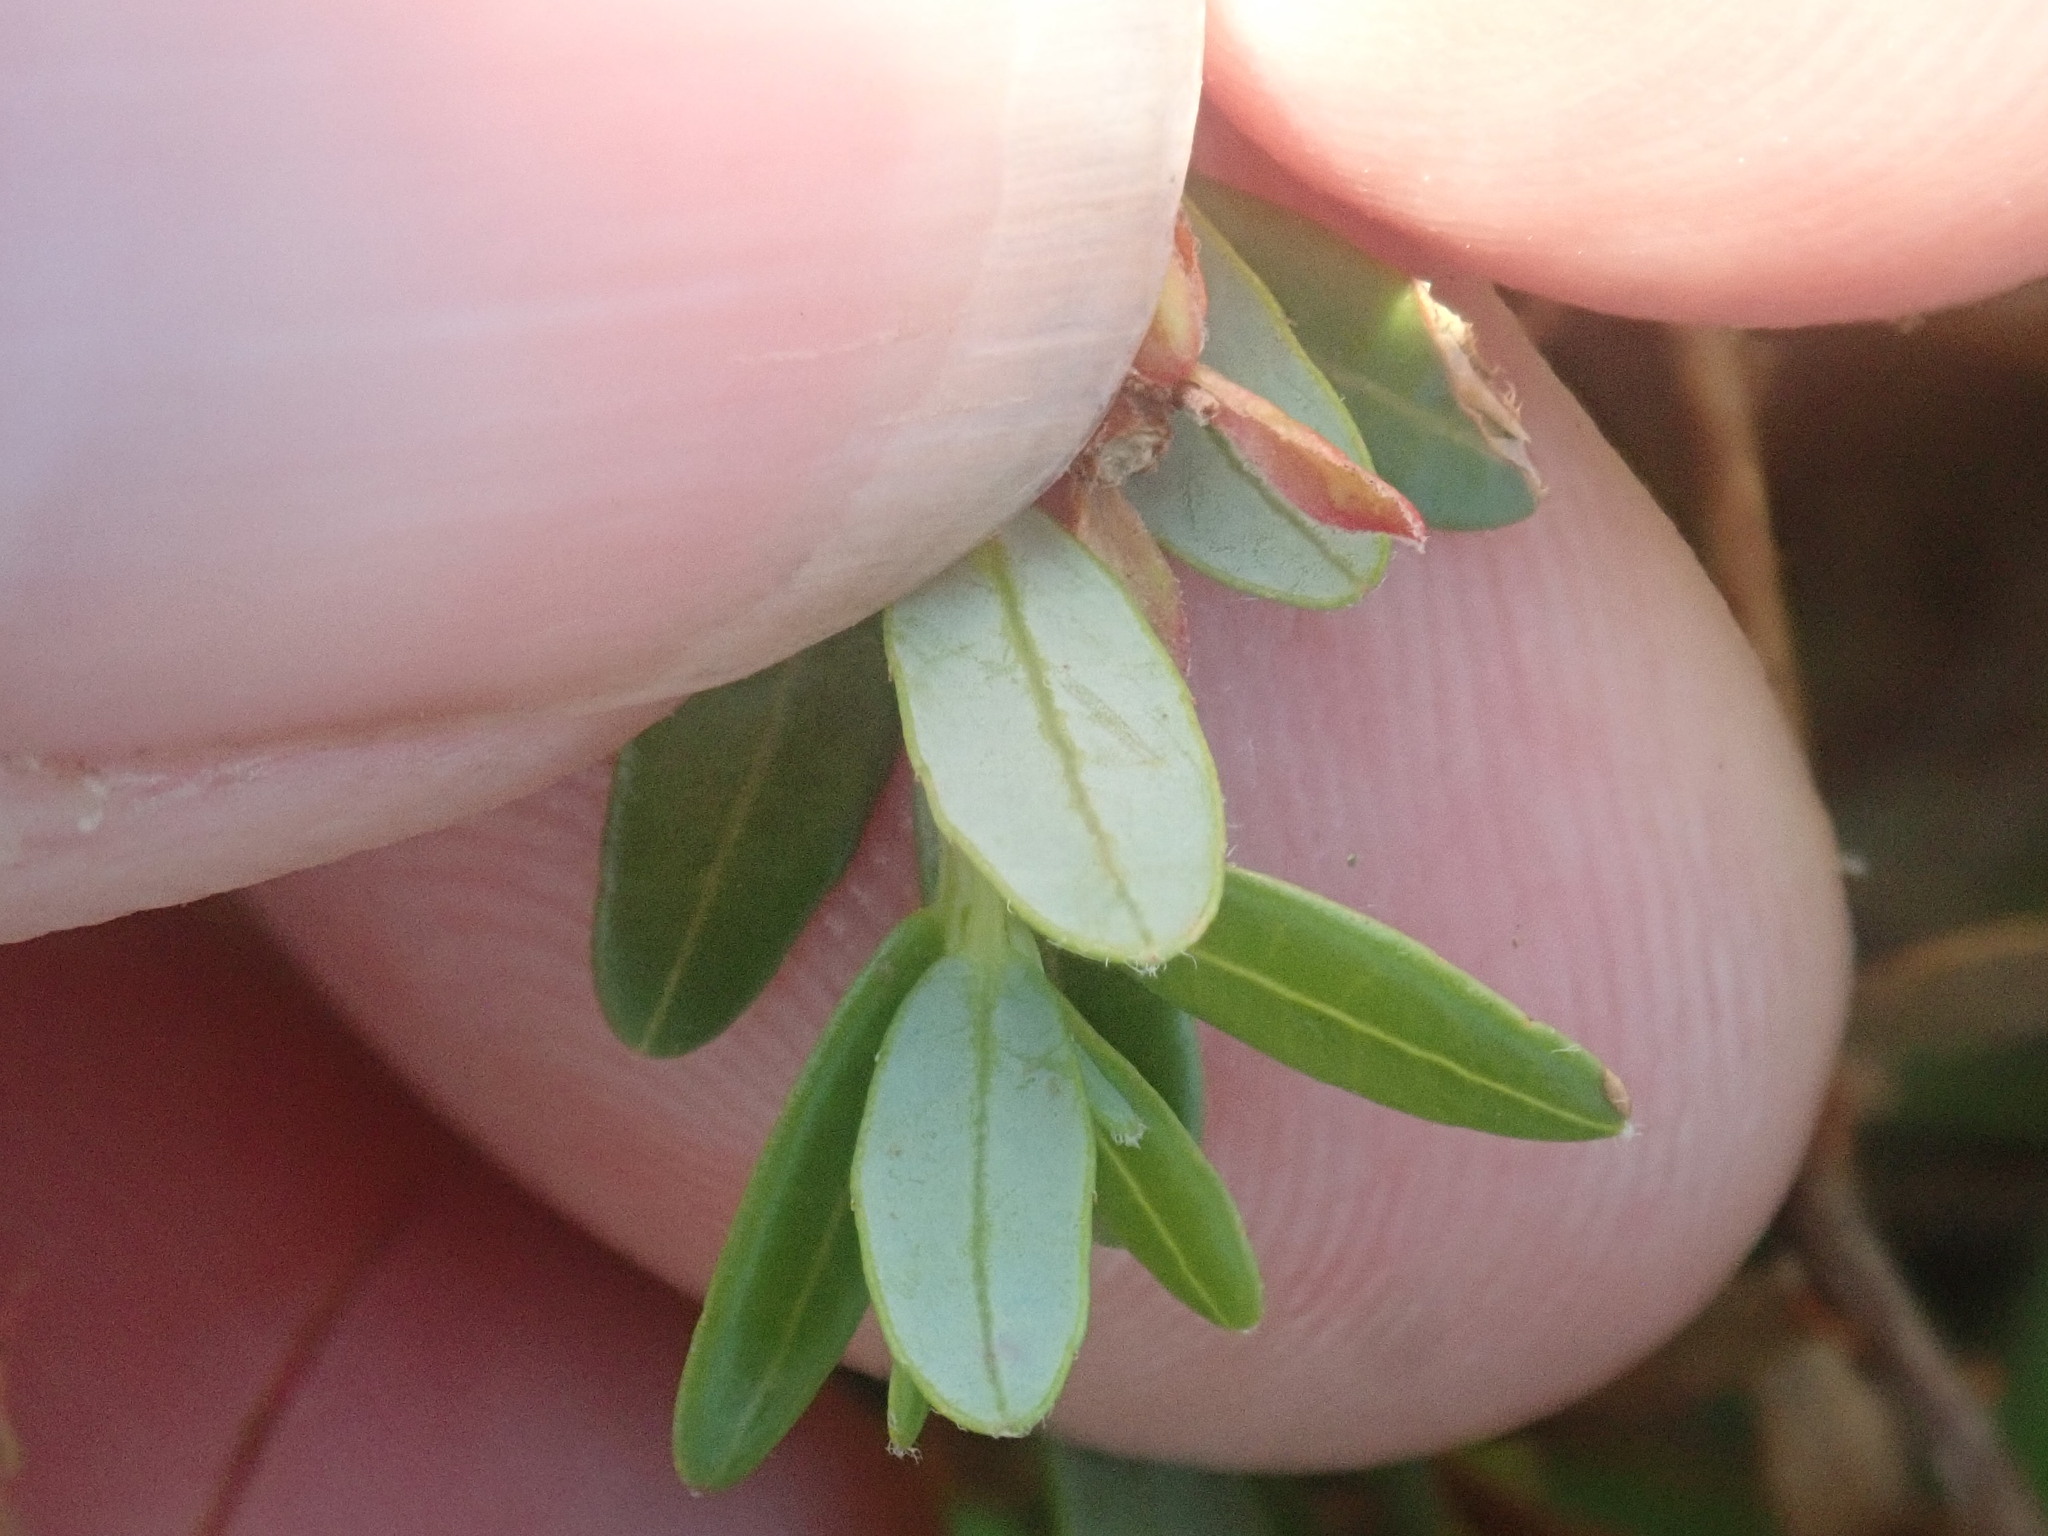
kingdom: Plantae
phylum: Tracheophyta
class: Magnoliopsida
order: Ericales
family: Ericaceae
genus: Vaccinium
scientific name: Vaccinium macrocarpon
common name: American cranberry
